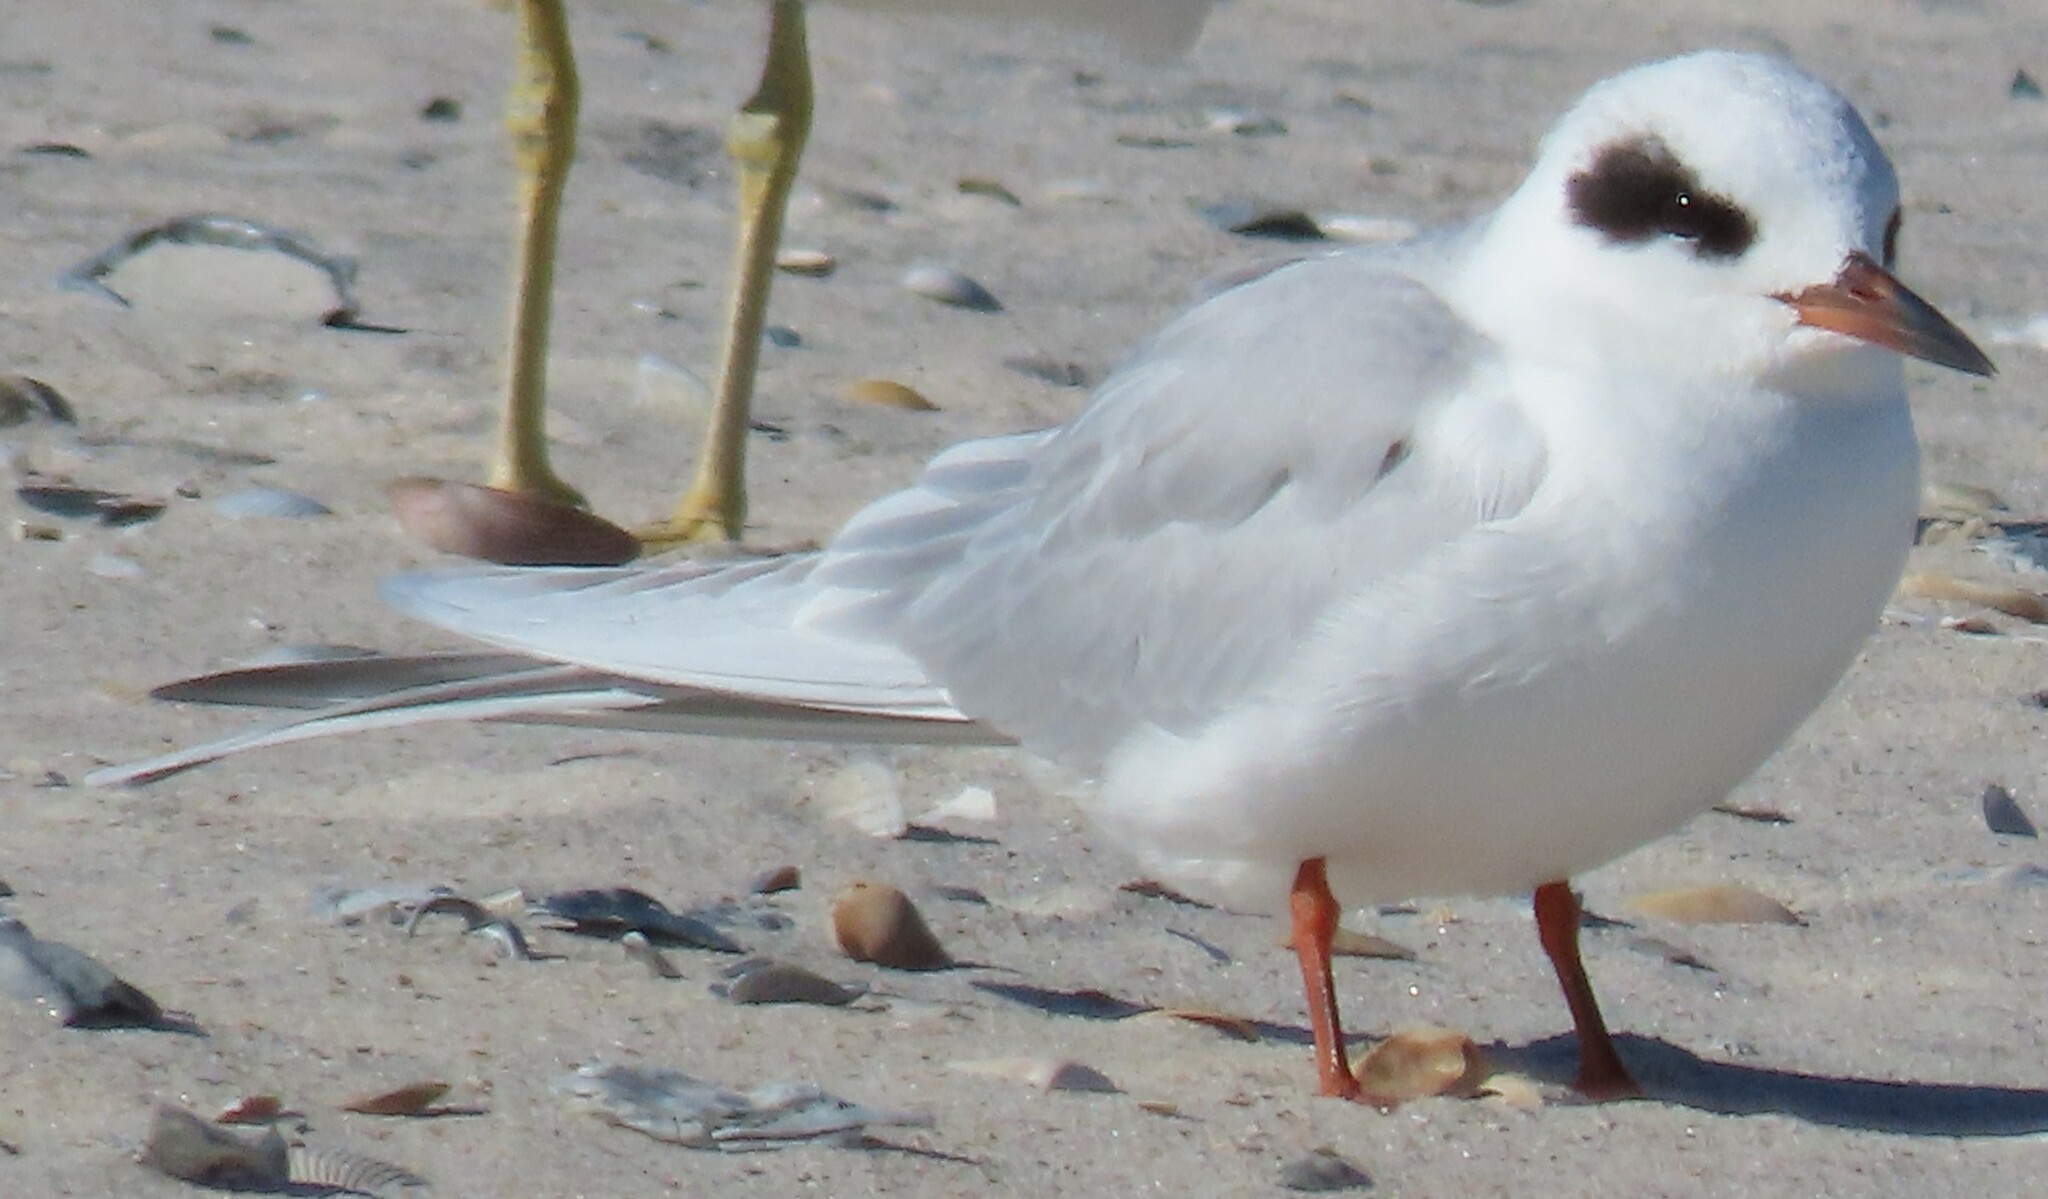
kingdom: Animalia
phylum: Chordata
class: Aves
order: Charadriiformes
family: Laridae
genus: Sterna
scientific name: Sterna forsteri
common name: Forster's tern
